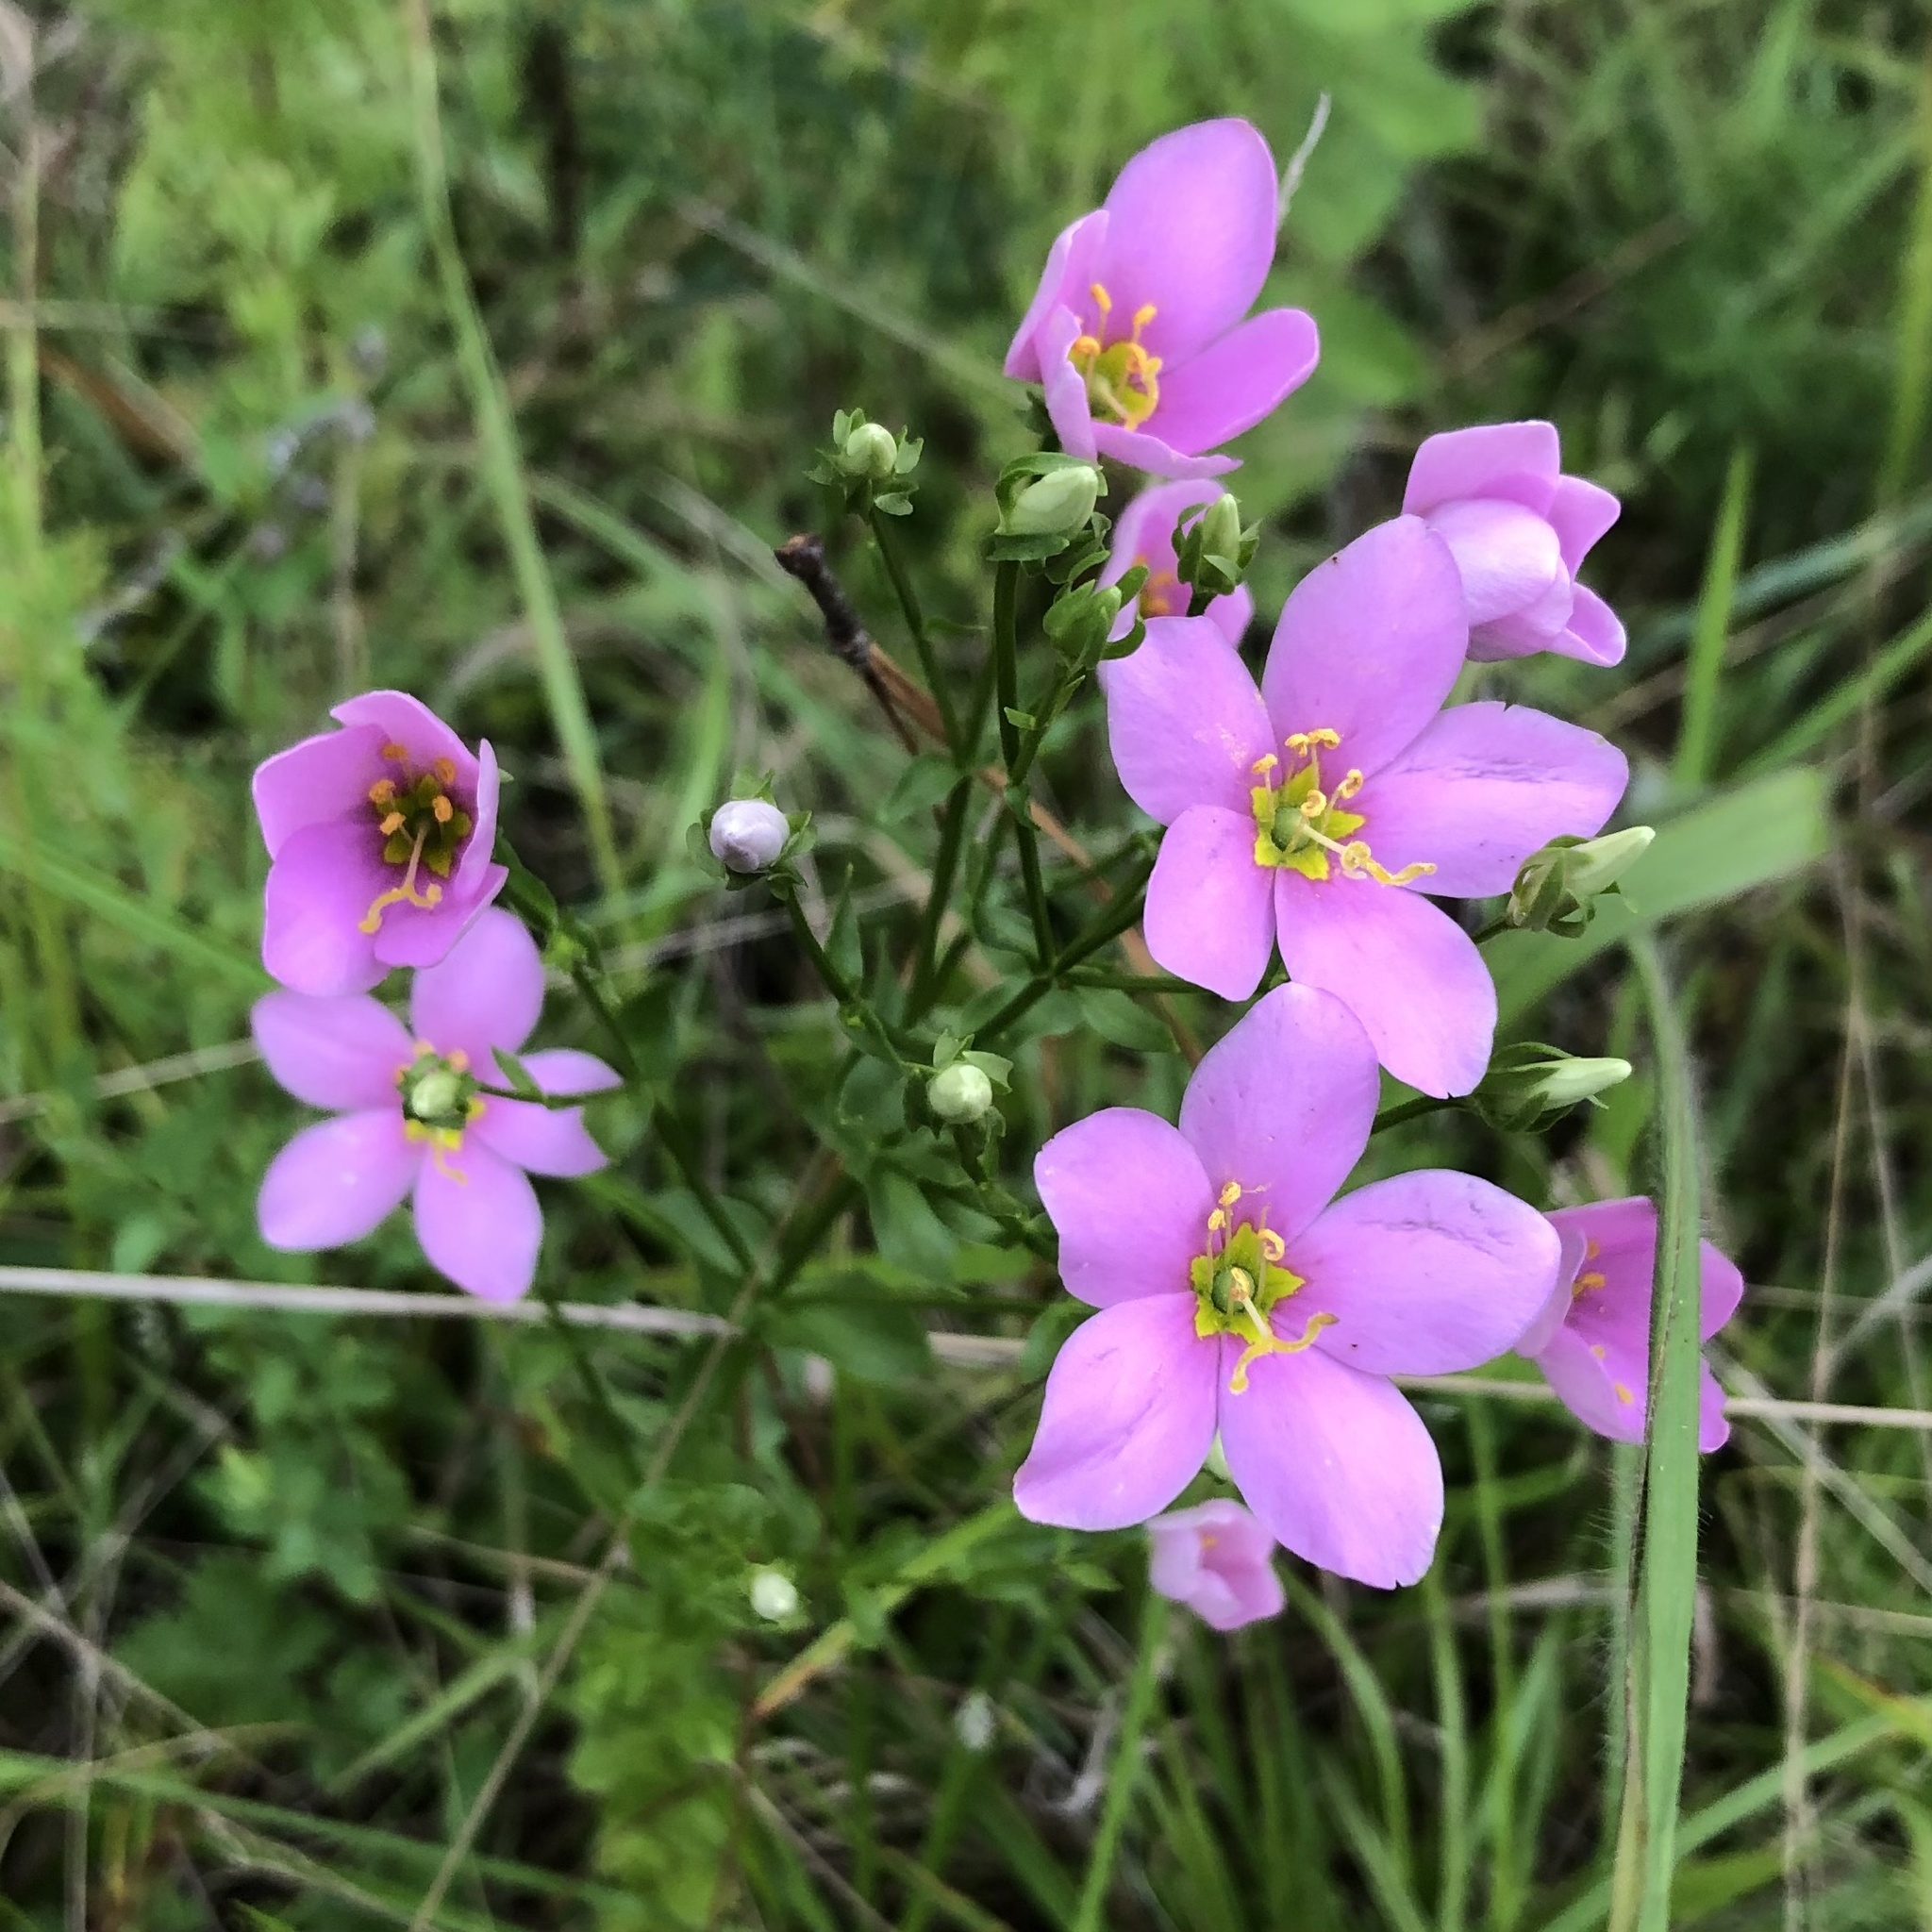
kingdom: Plantae
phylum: Tracheophyta
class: Magnoliopsida
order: Gentianales
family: Gentianaceae
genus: Sabatia
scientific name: Sabatia angularis
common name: Rose-pink
